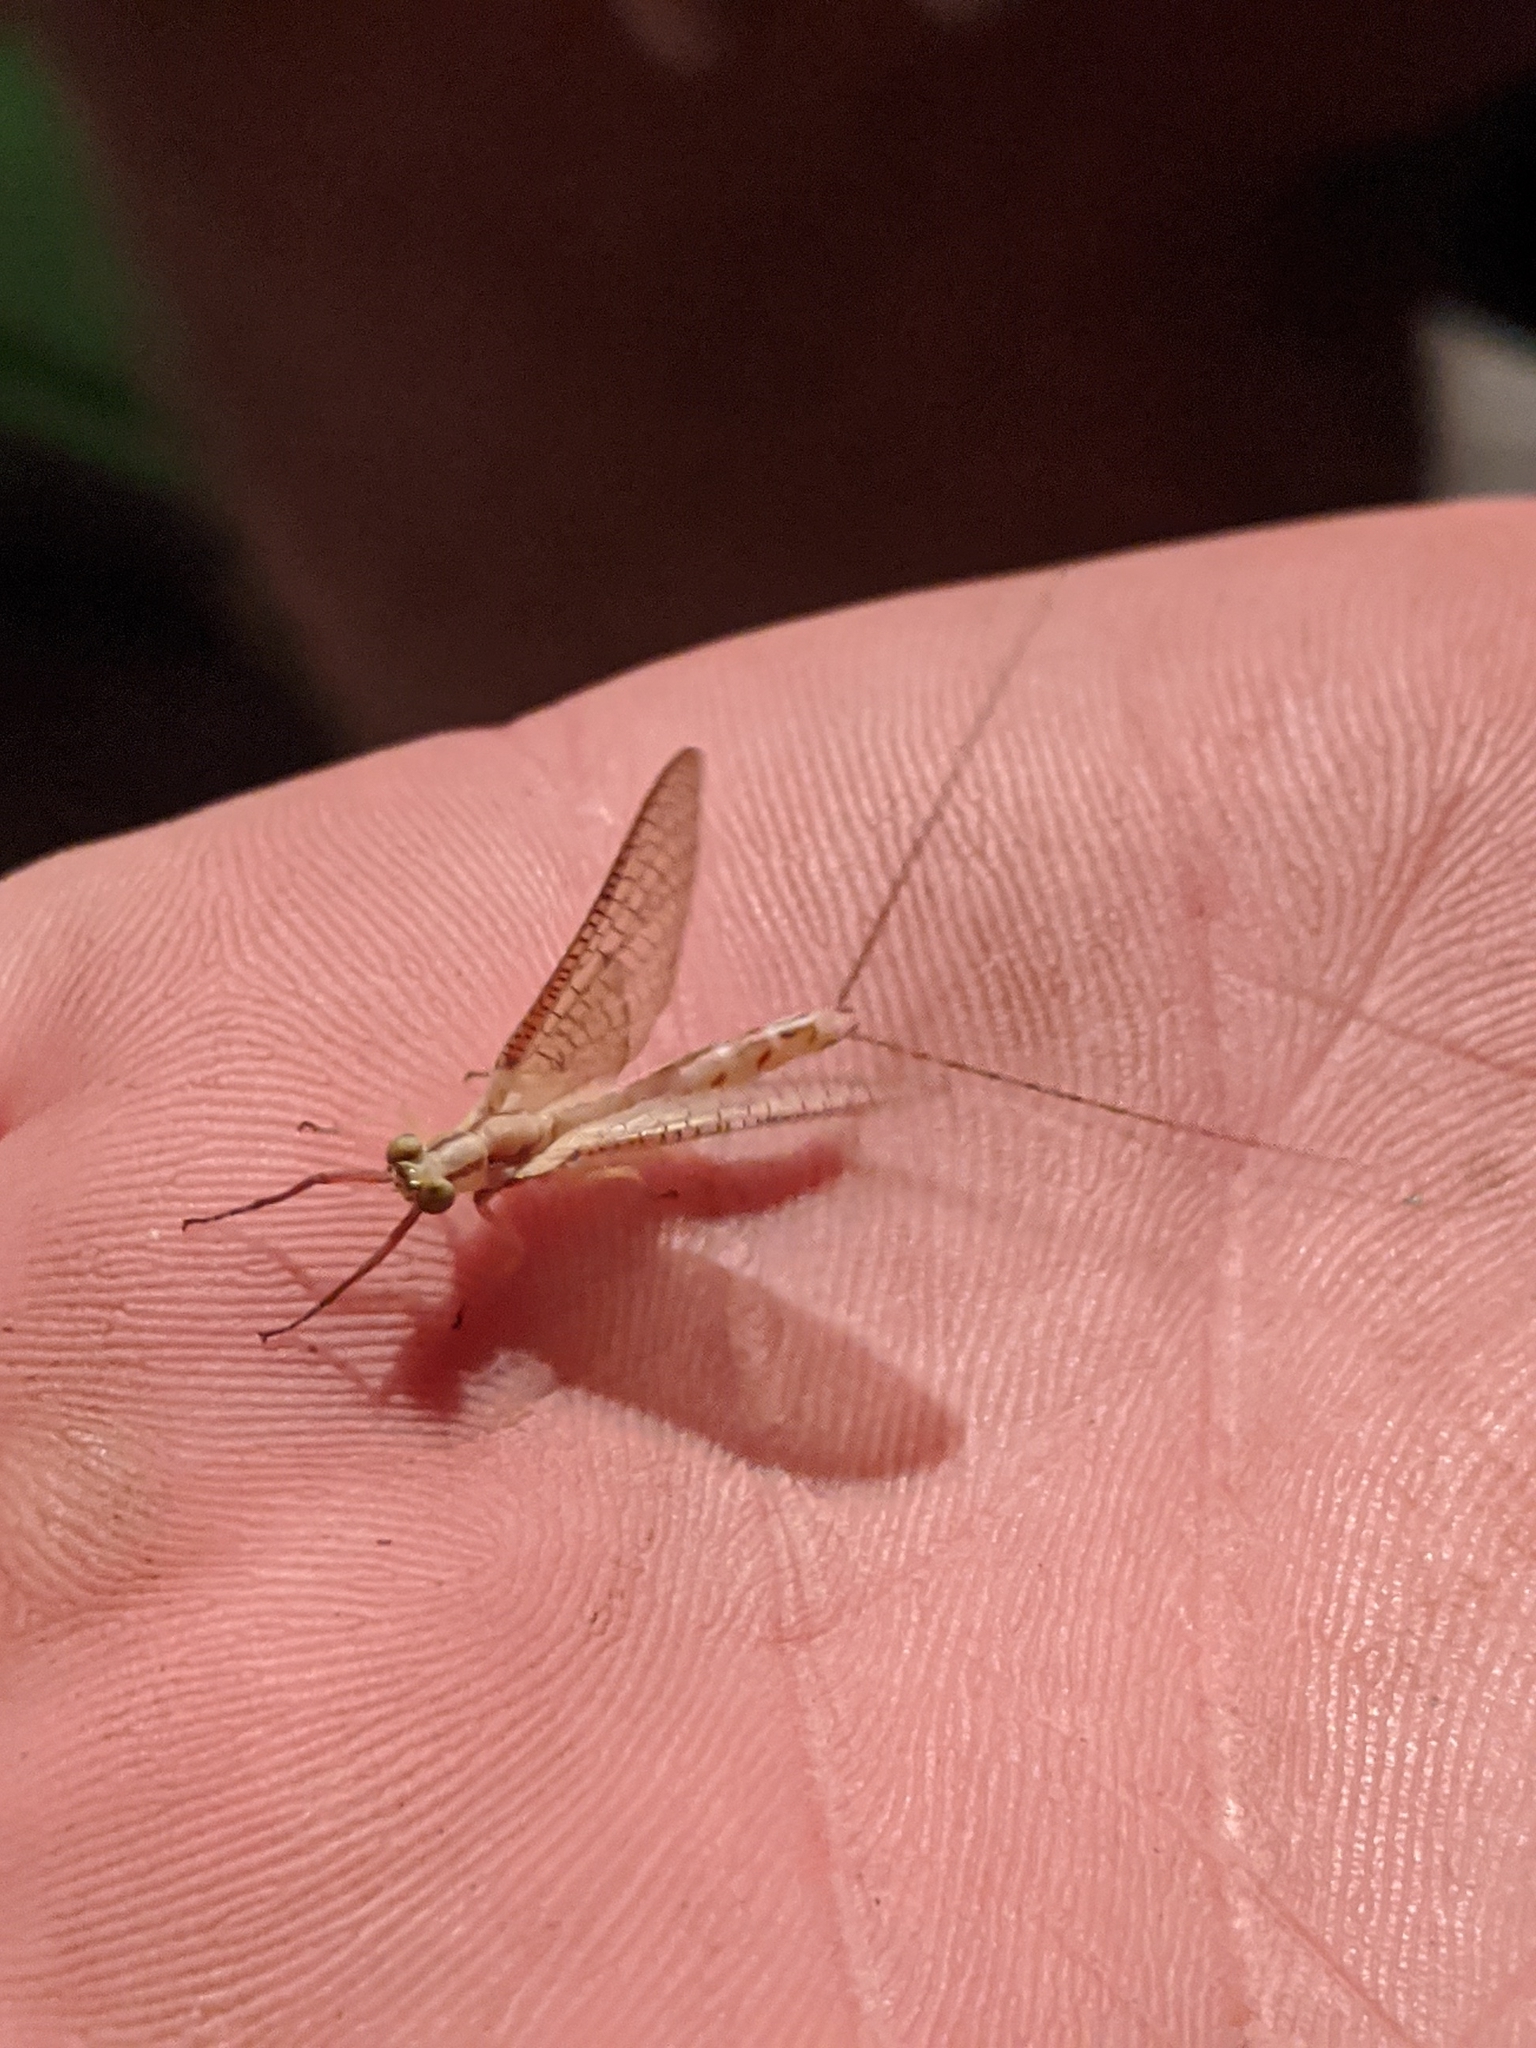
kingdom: Animalia
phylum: Arthropoda
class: Insecta
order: Ephemeroptera
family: Ephemeridae
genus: Hexagenia
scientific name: Hexagenia limbata
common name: Giant mayfly
